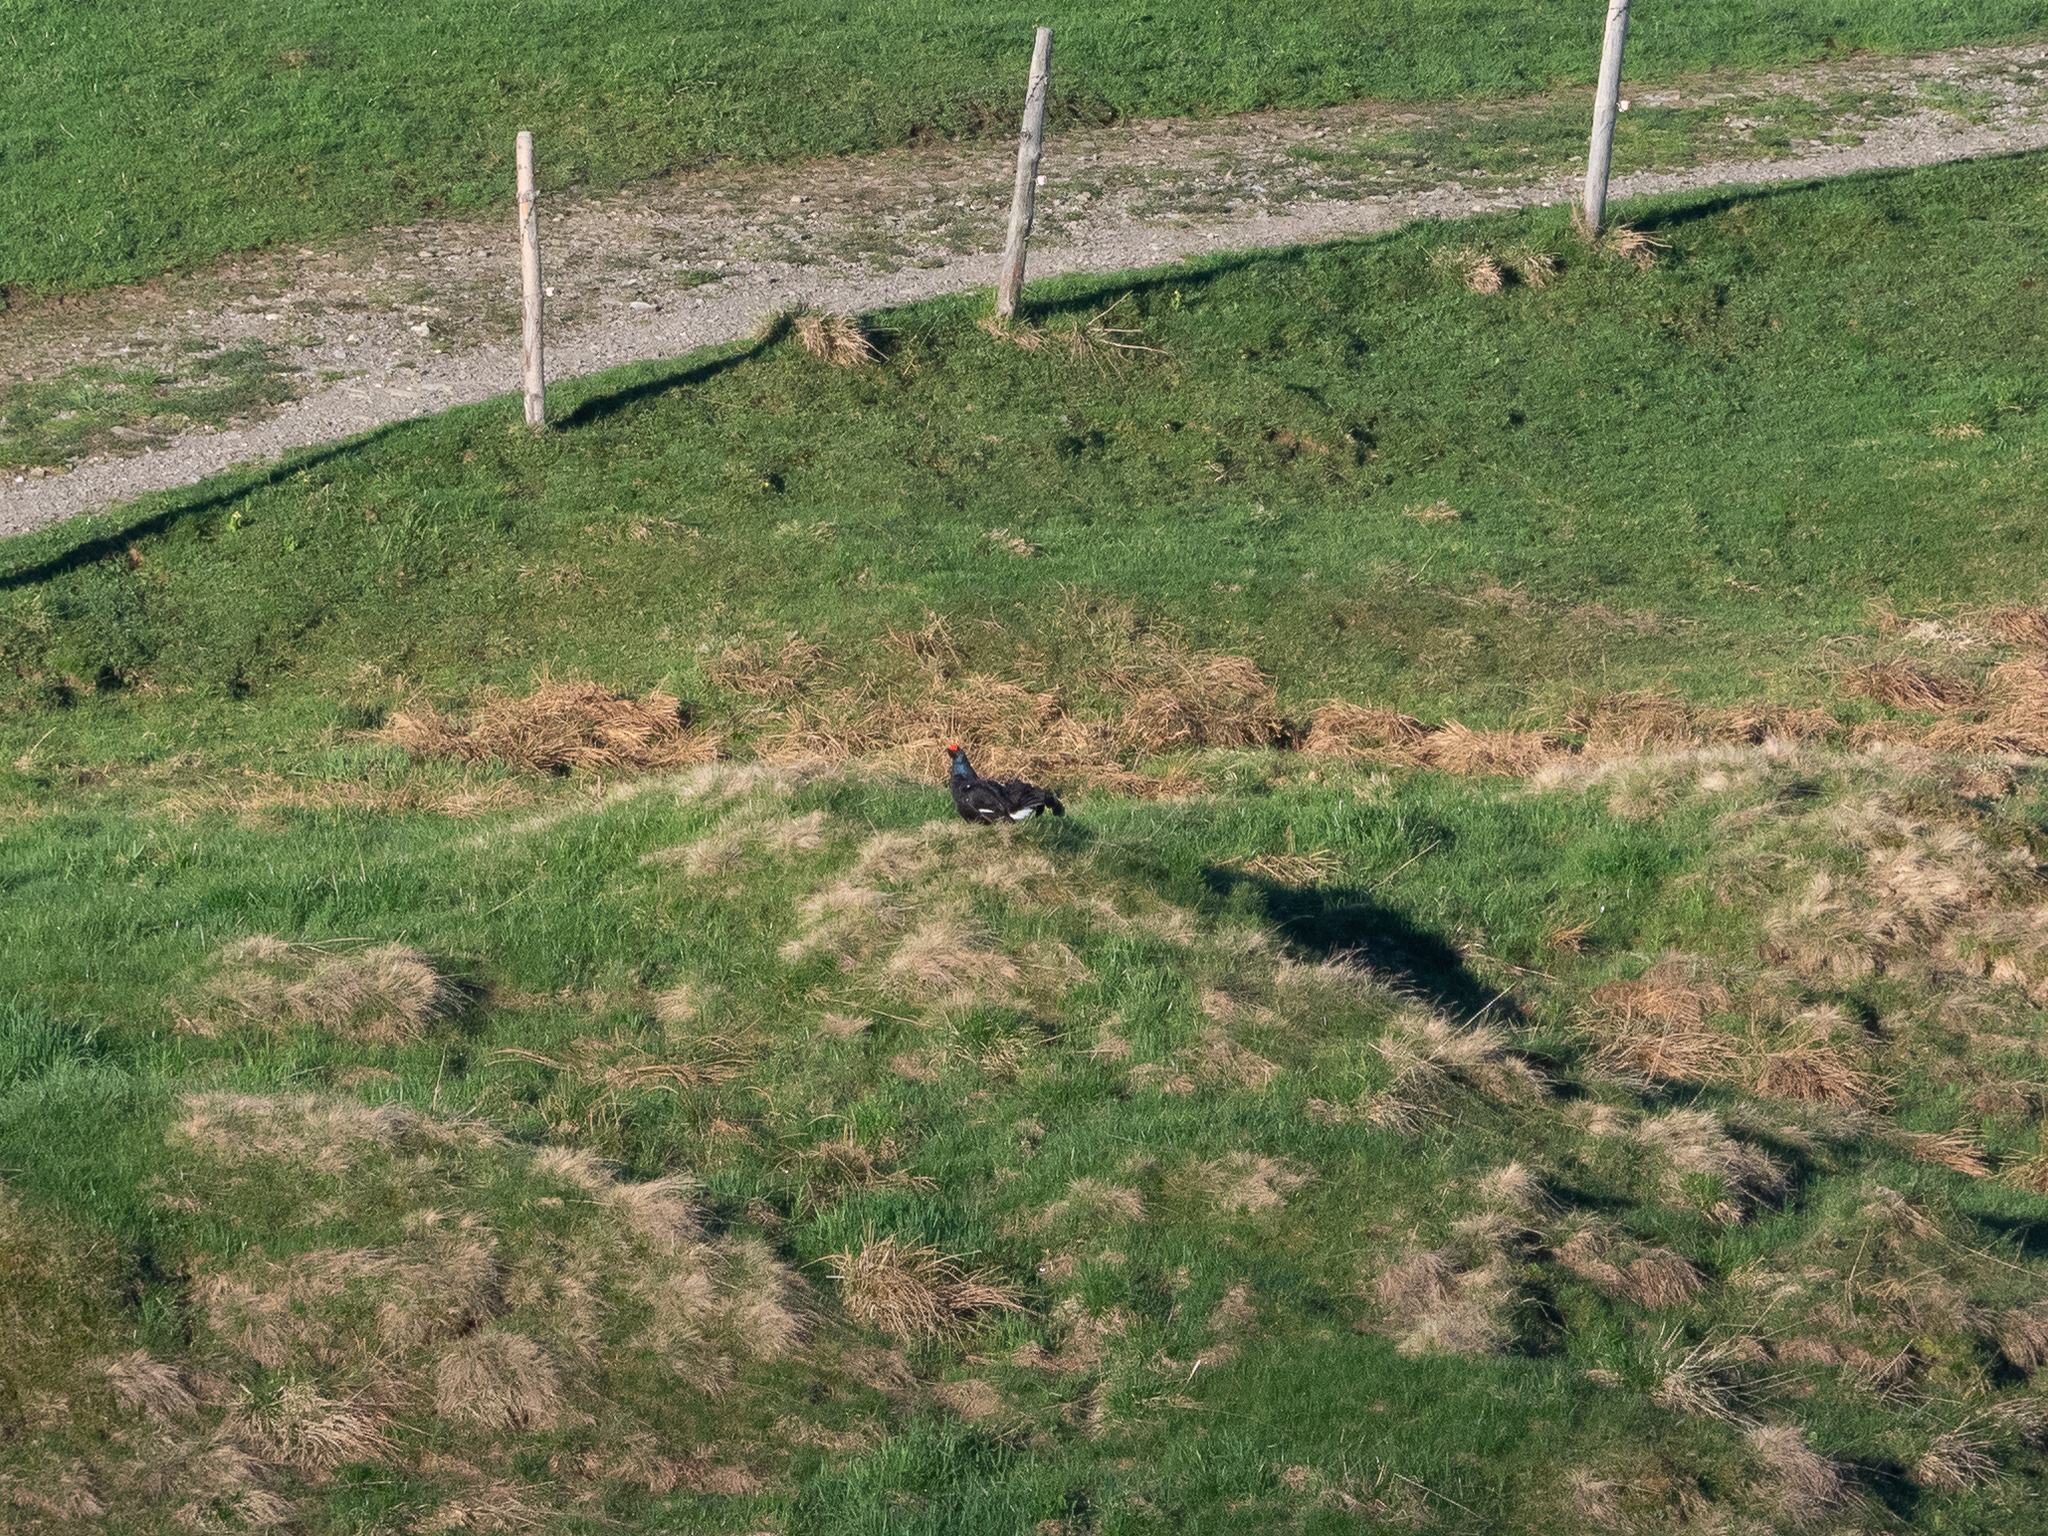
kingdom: Animalia
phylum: Chordata
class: Aves
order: Galliformes
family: Phasianidae
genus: Lyrurus
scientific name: Lyrurus tetrix
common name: Black grouse
